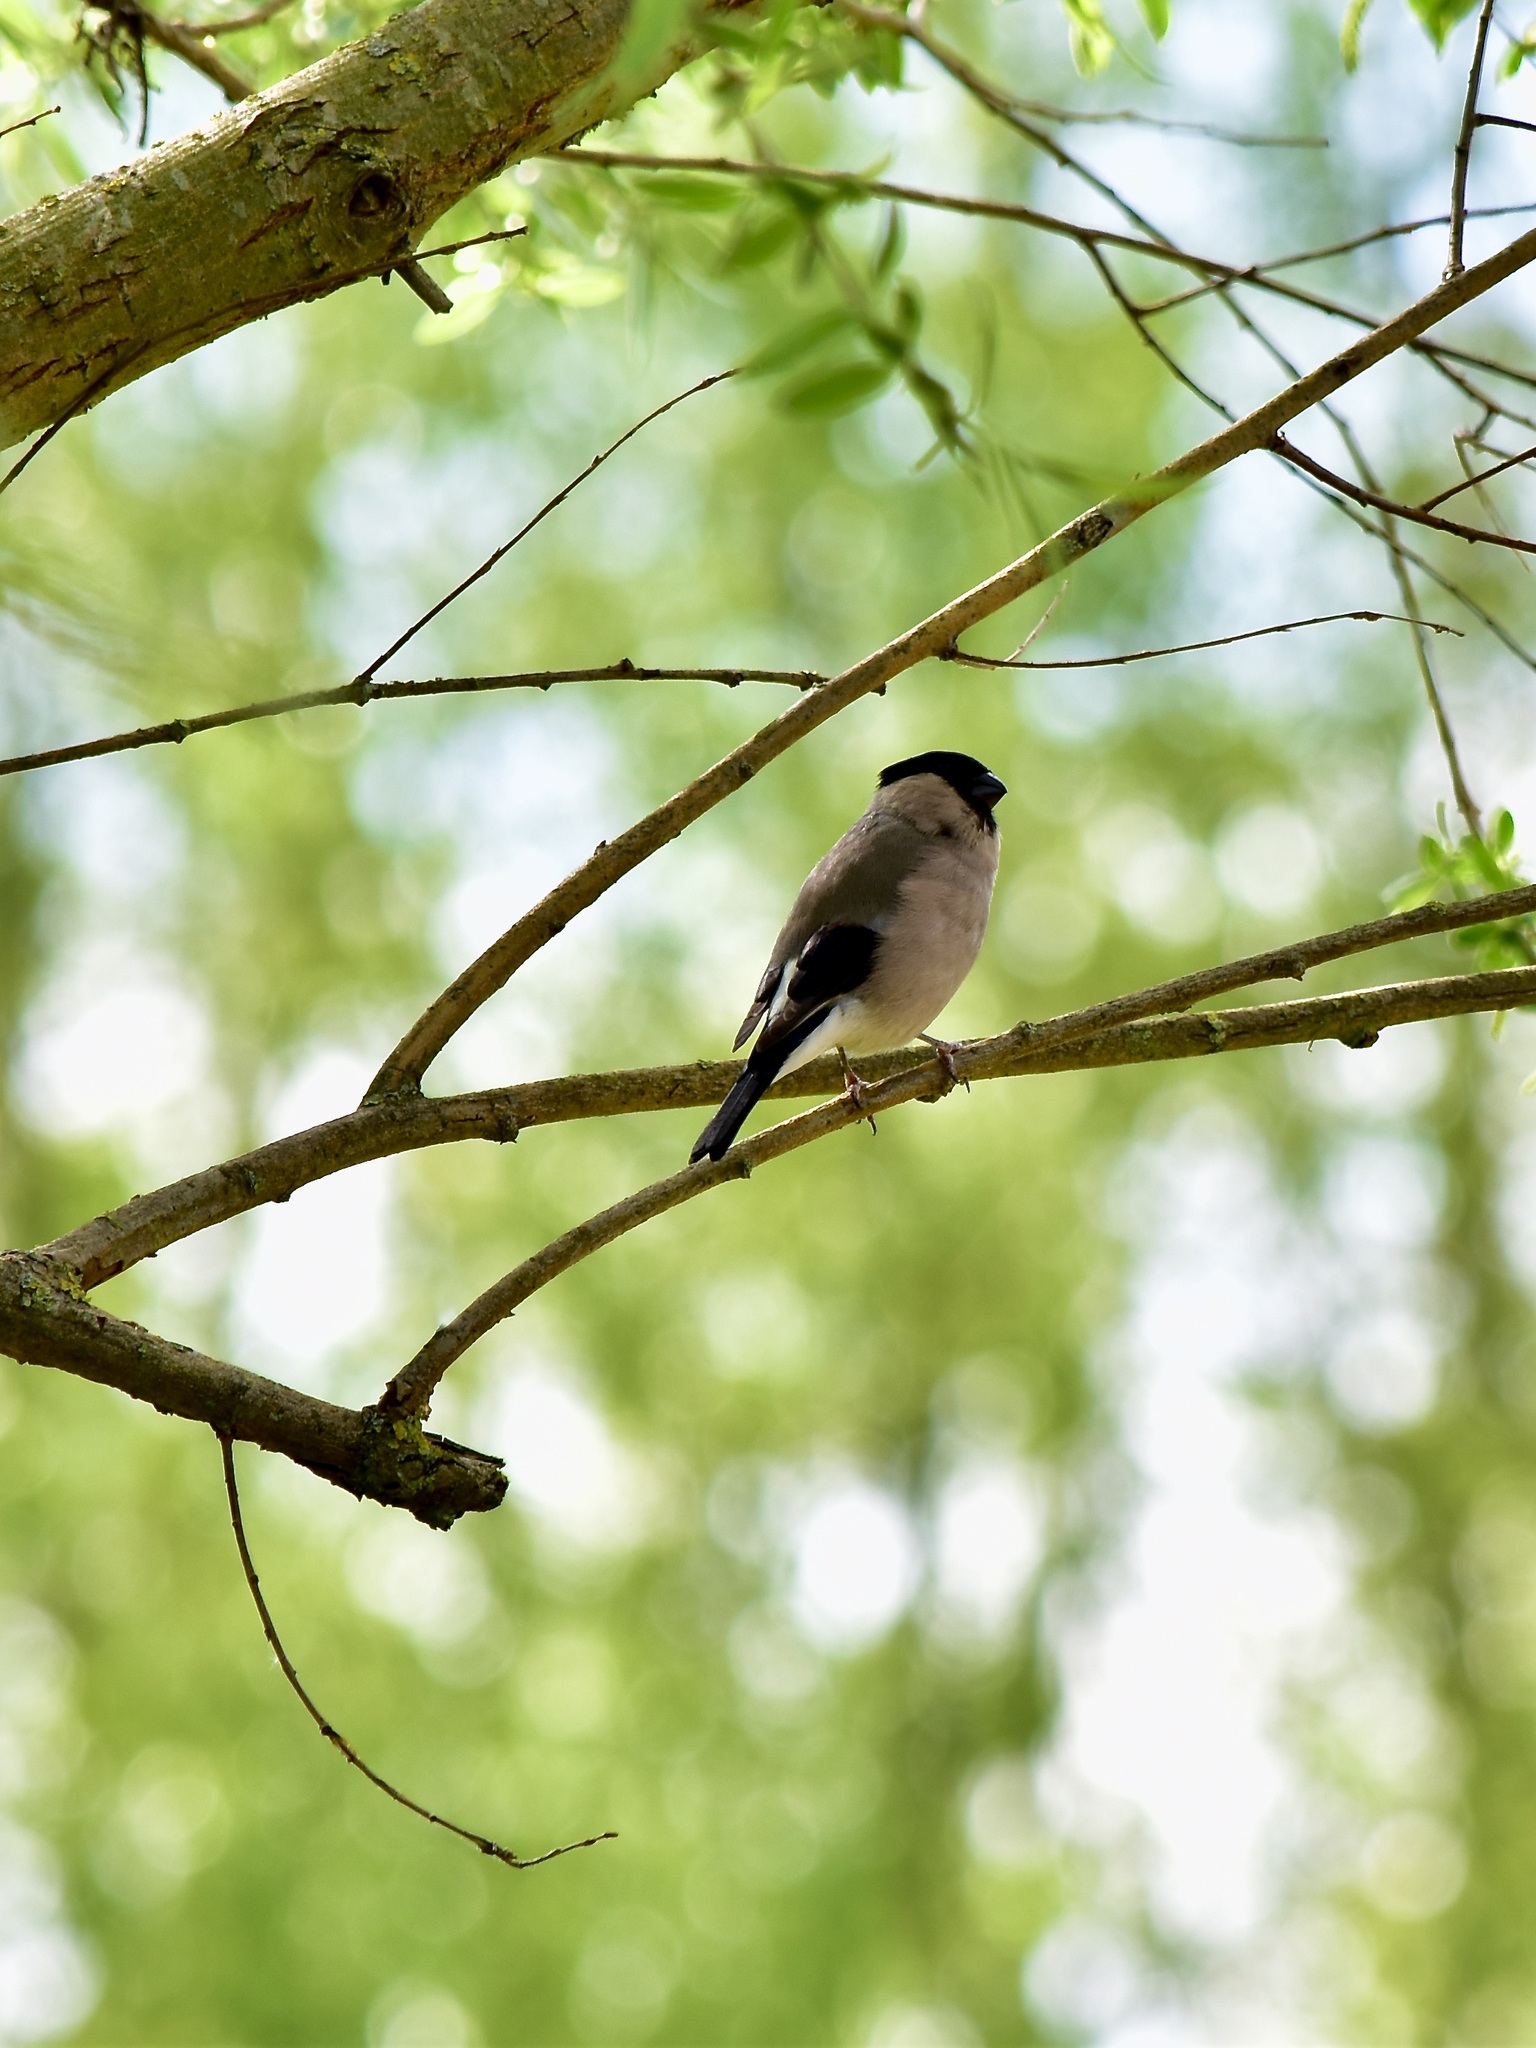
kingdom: Animalia
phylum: Chordata
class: Aves
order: Passeriformes
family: Fringillidae
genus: Pyrrhula
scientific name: Pyrrhula pyrrhula
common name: Eurasian bullfinch
